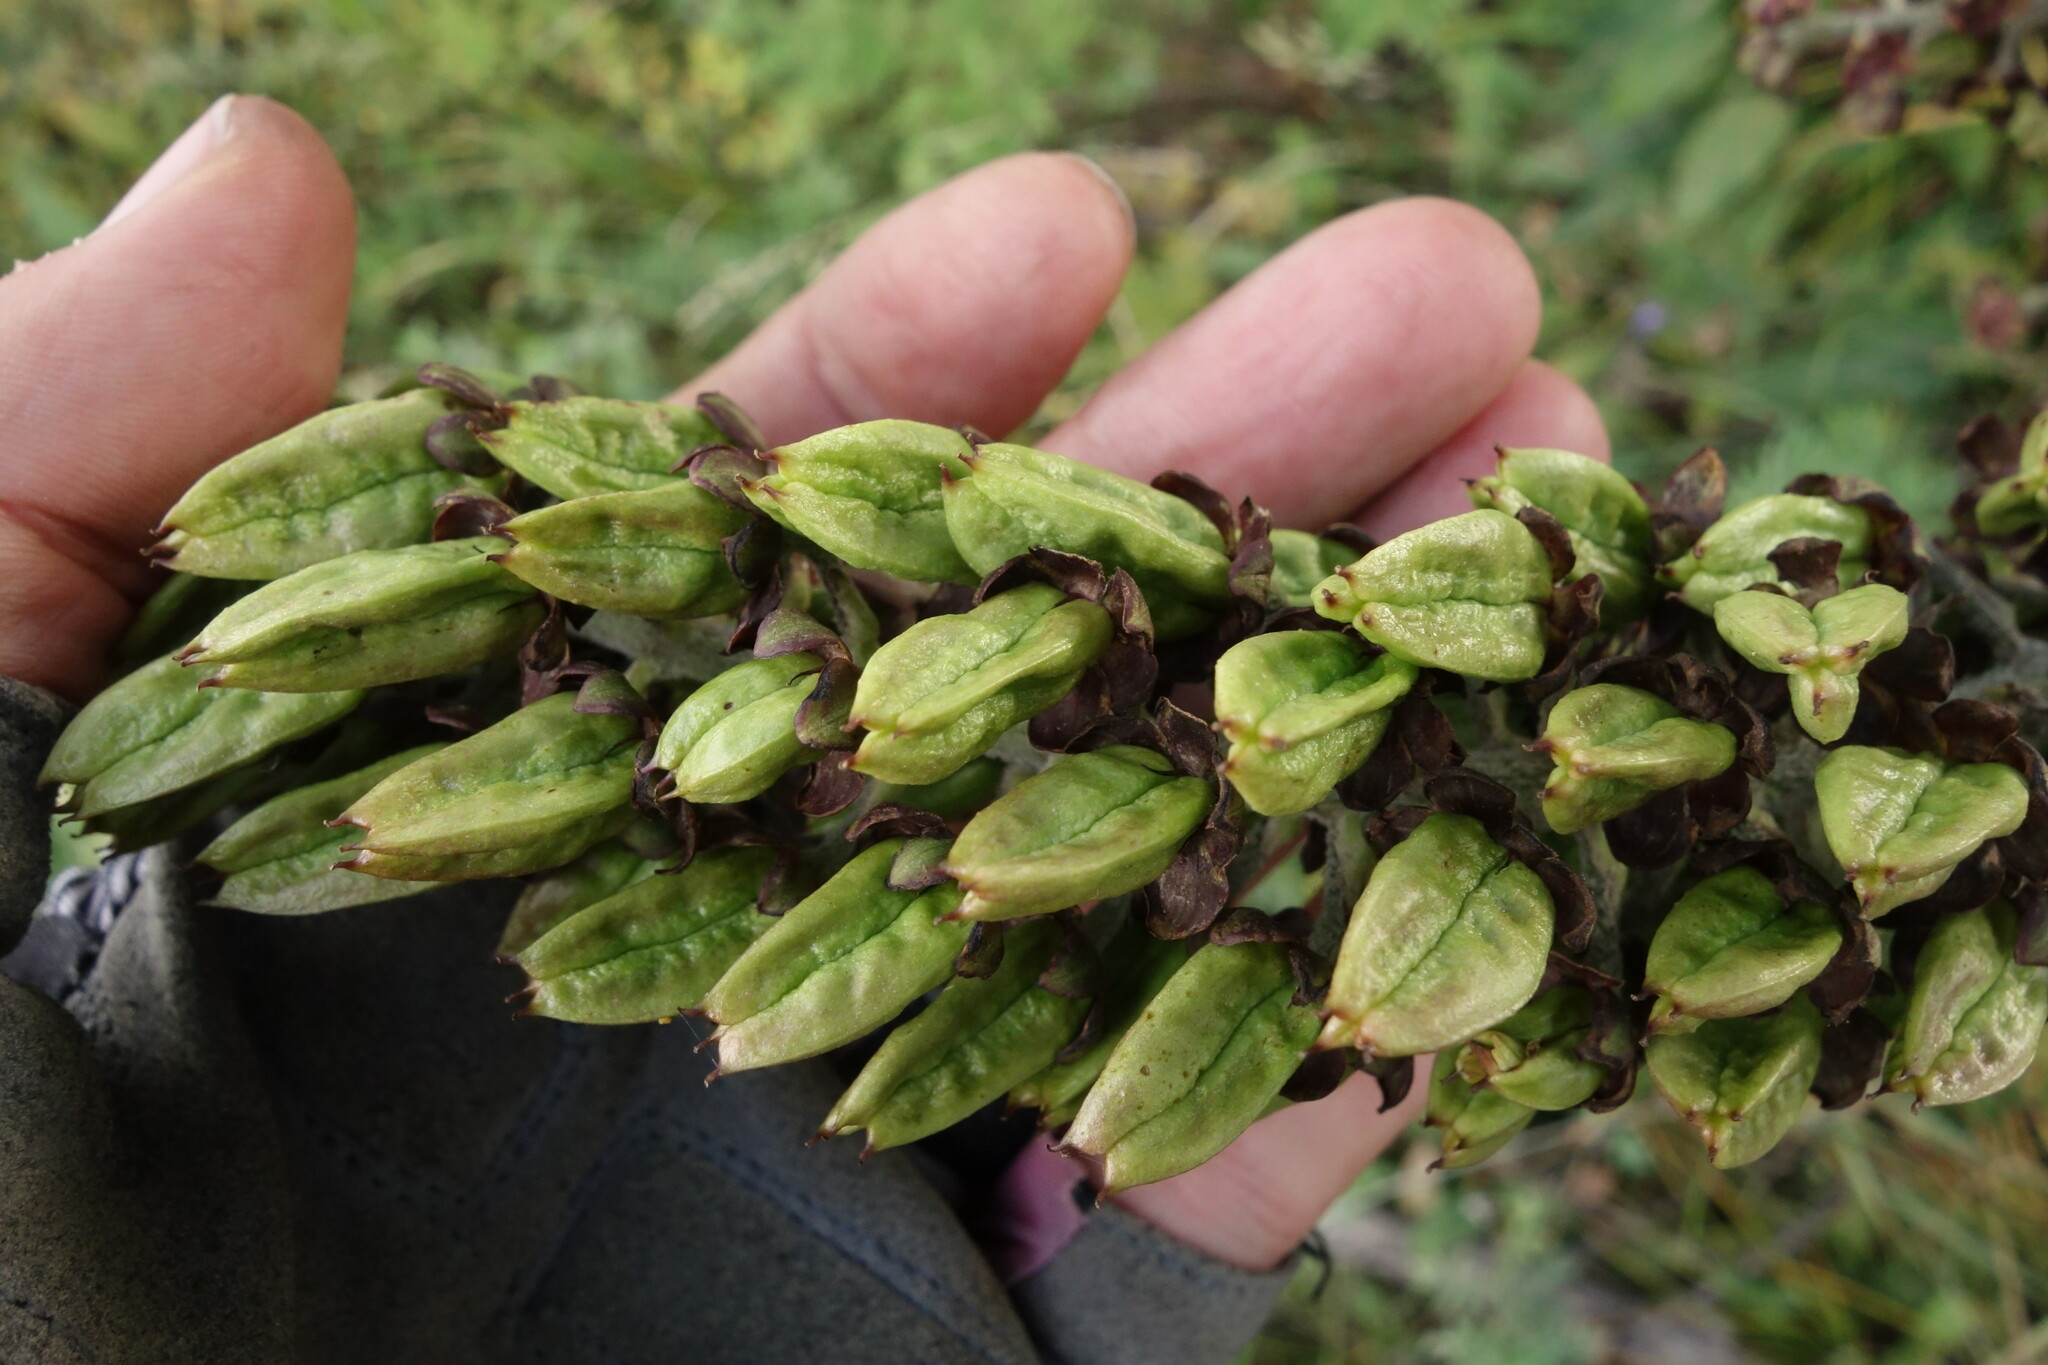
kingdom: Plantae
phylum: Tracheophyta
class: Liliopsida
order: Liliales
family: Melanthiaceae
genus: Veratrum
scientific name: Veratrum nigrum
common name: Black veratrum
